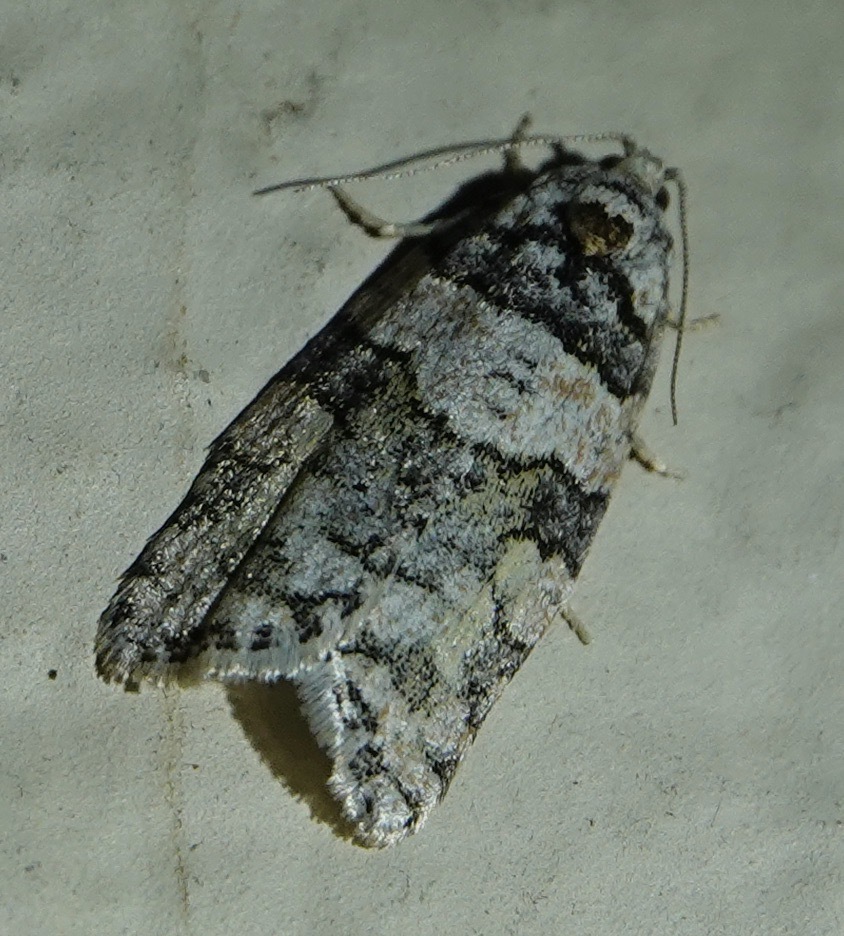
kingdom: Animalia
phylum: Arthropoda
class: Insecta
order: Lepidoptera
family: Tortricidae
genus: Archips
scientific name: Archips alberta
